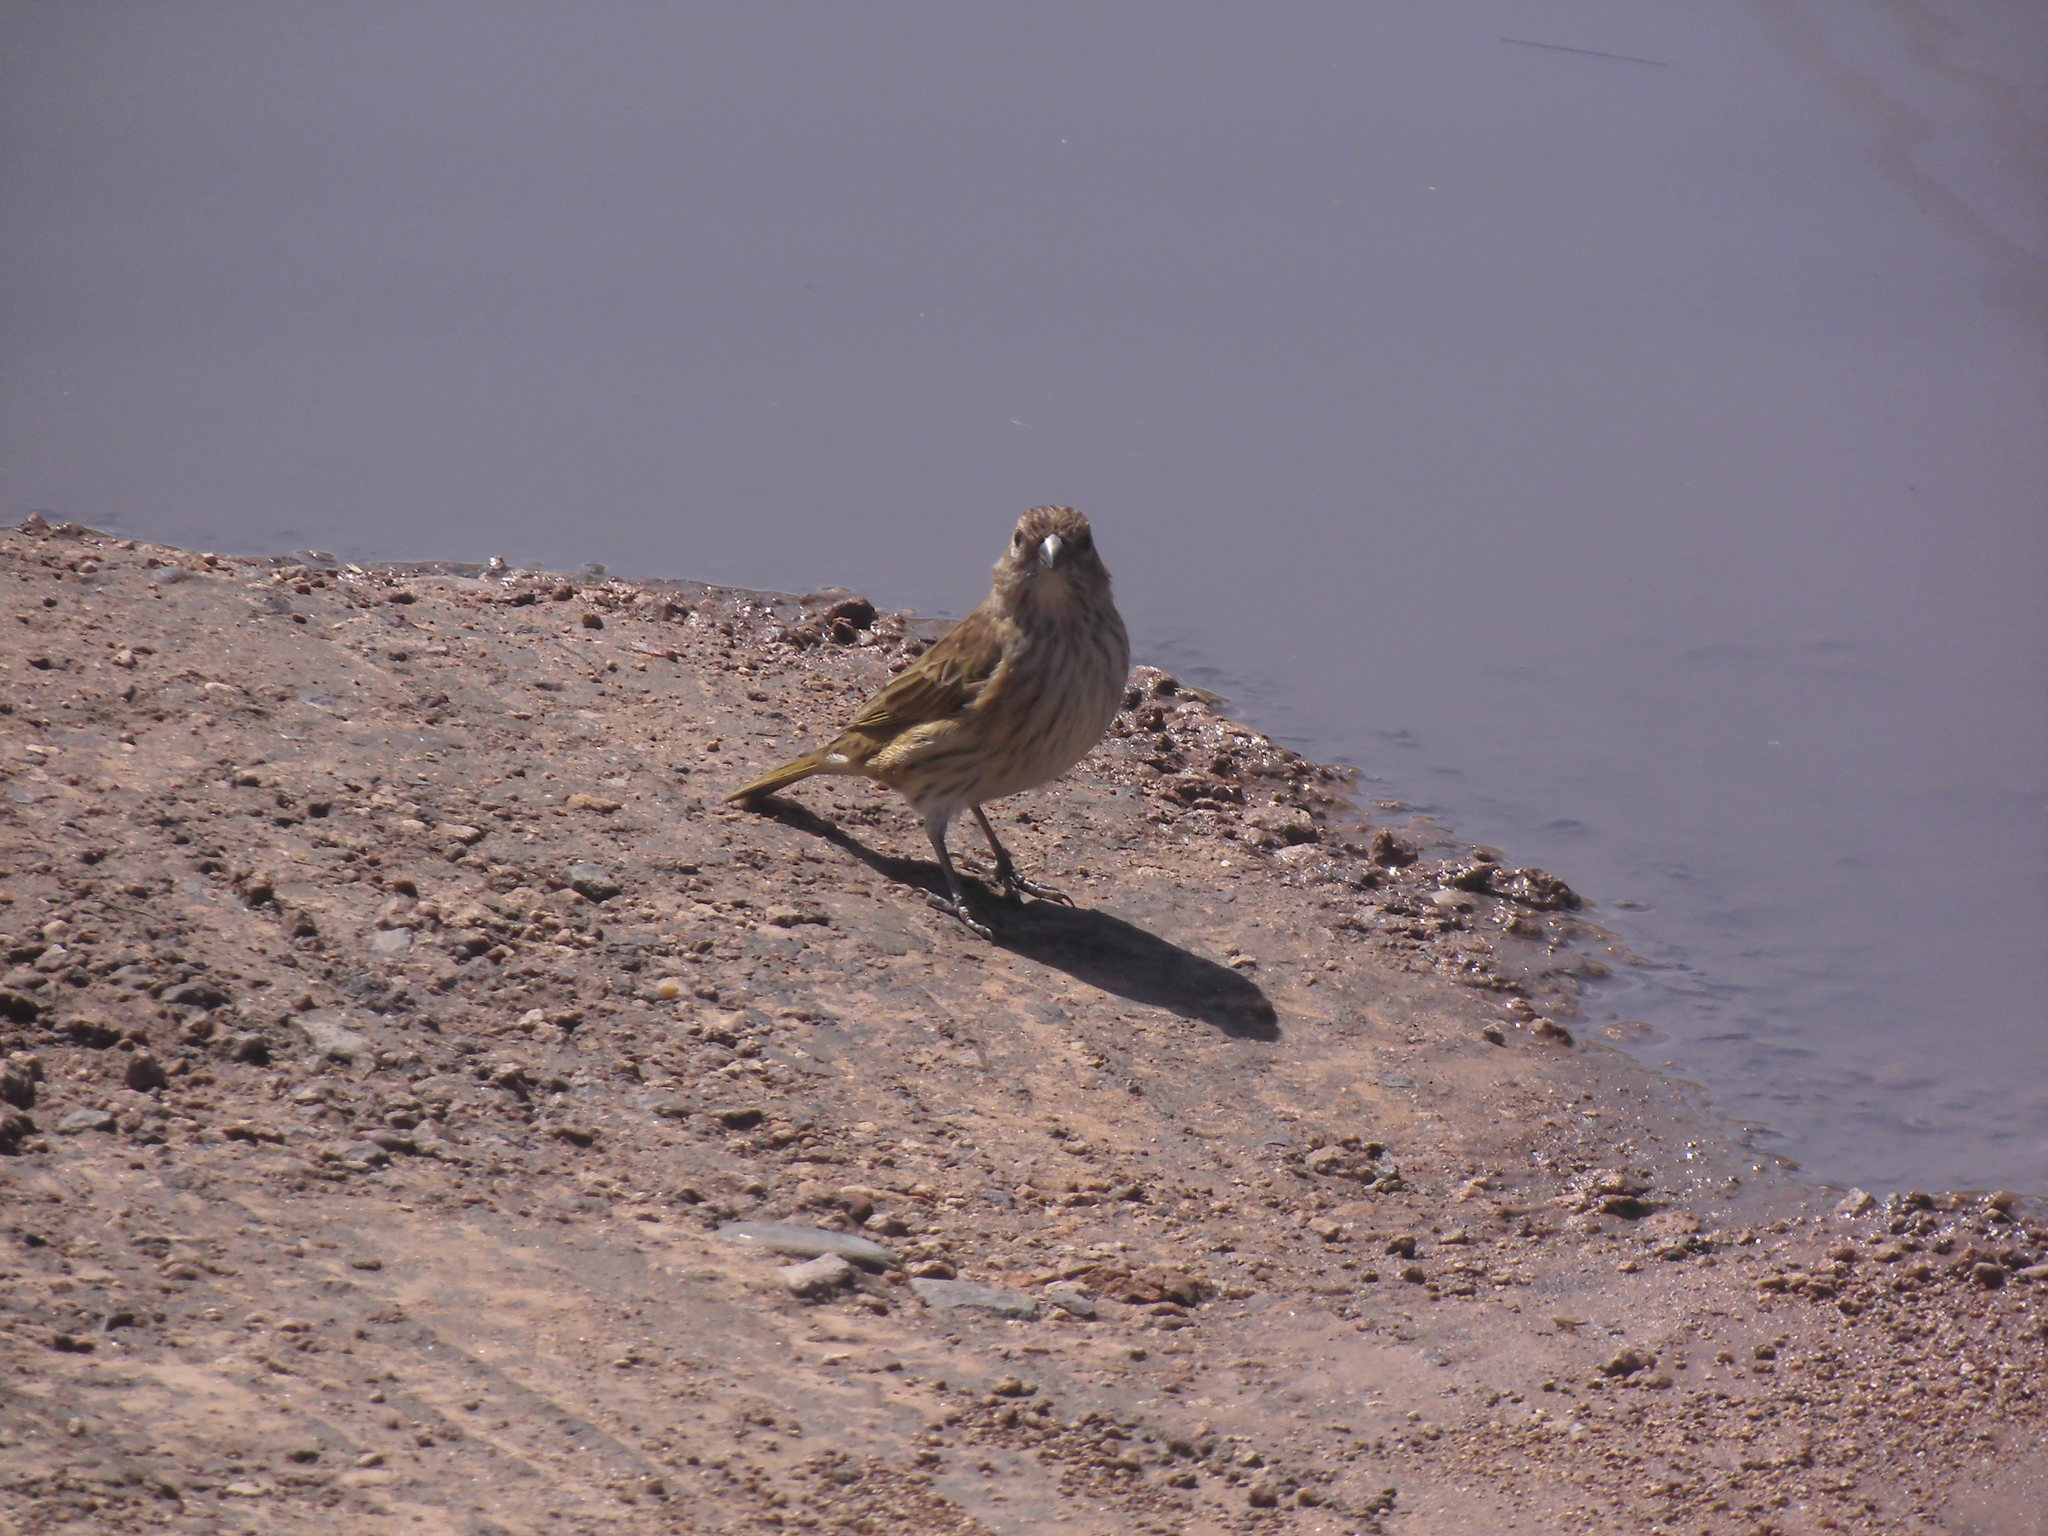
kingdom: Animalia
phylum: Chordata
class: Aves
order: Passeriformes
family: Thraupidae
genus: Sicalis
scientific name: Sicalis flaveola
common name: Saffron finch
